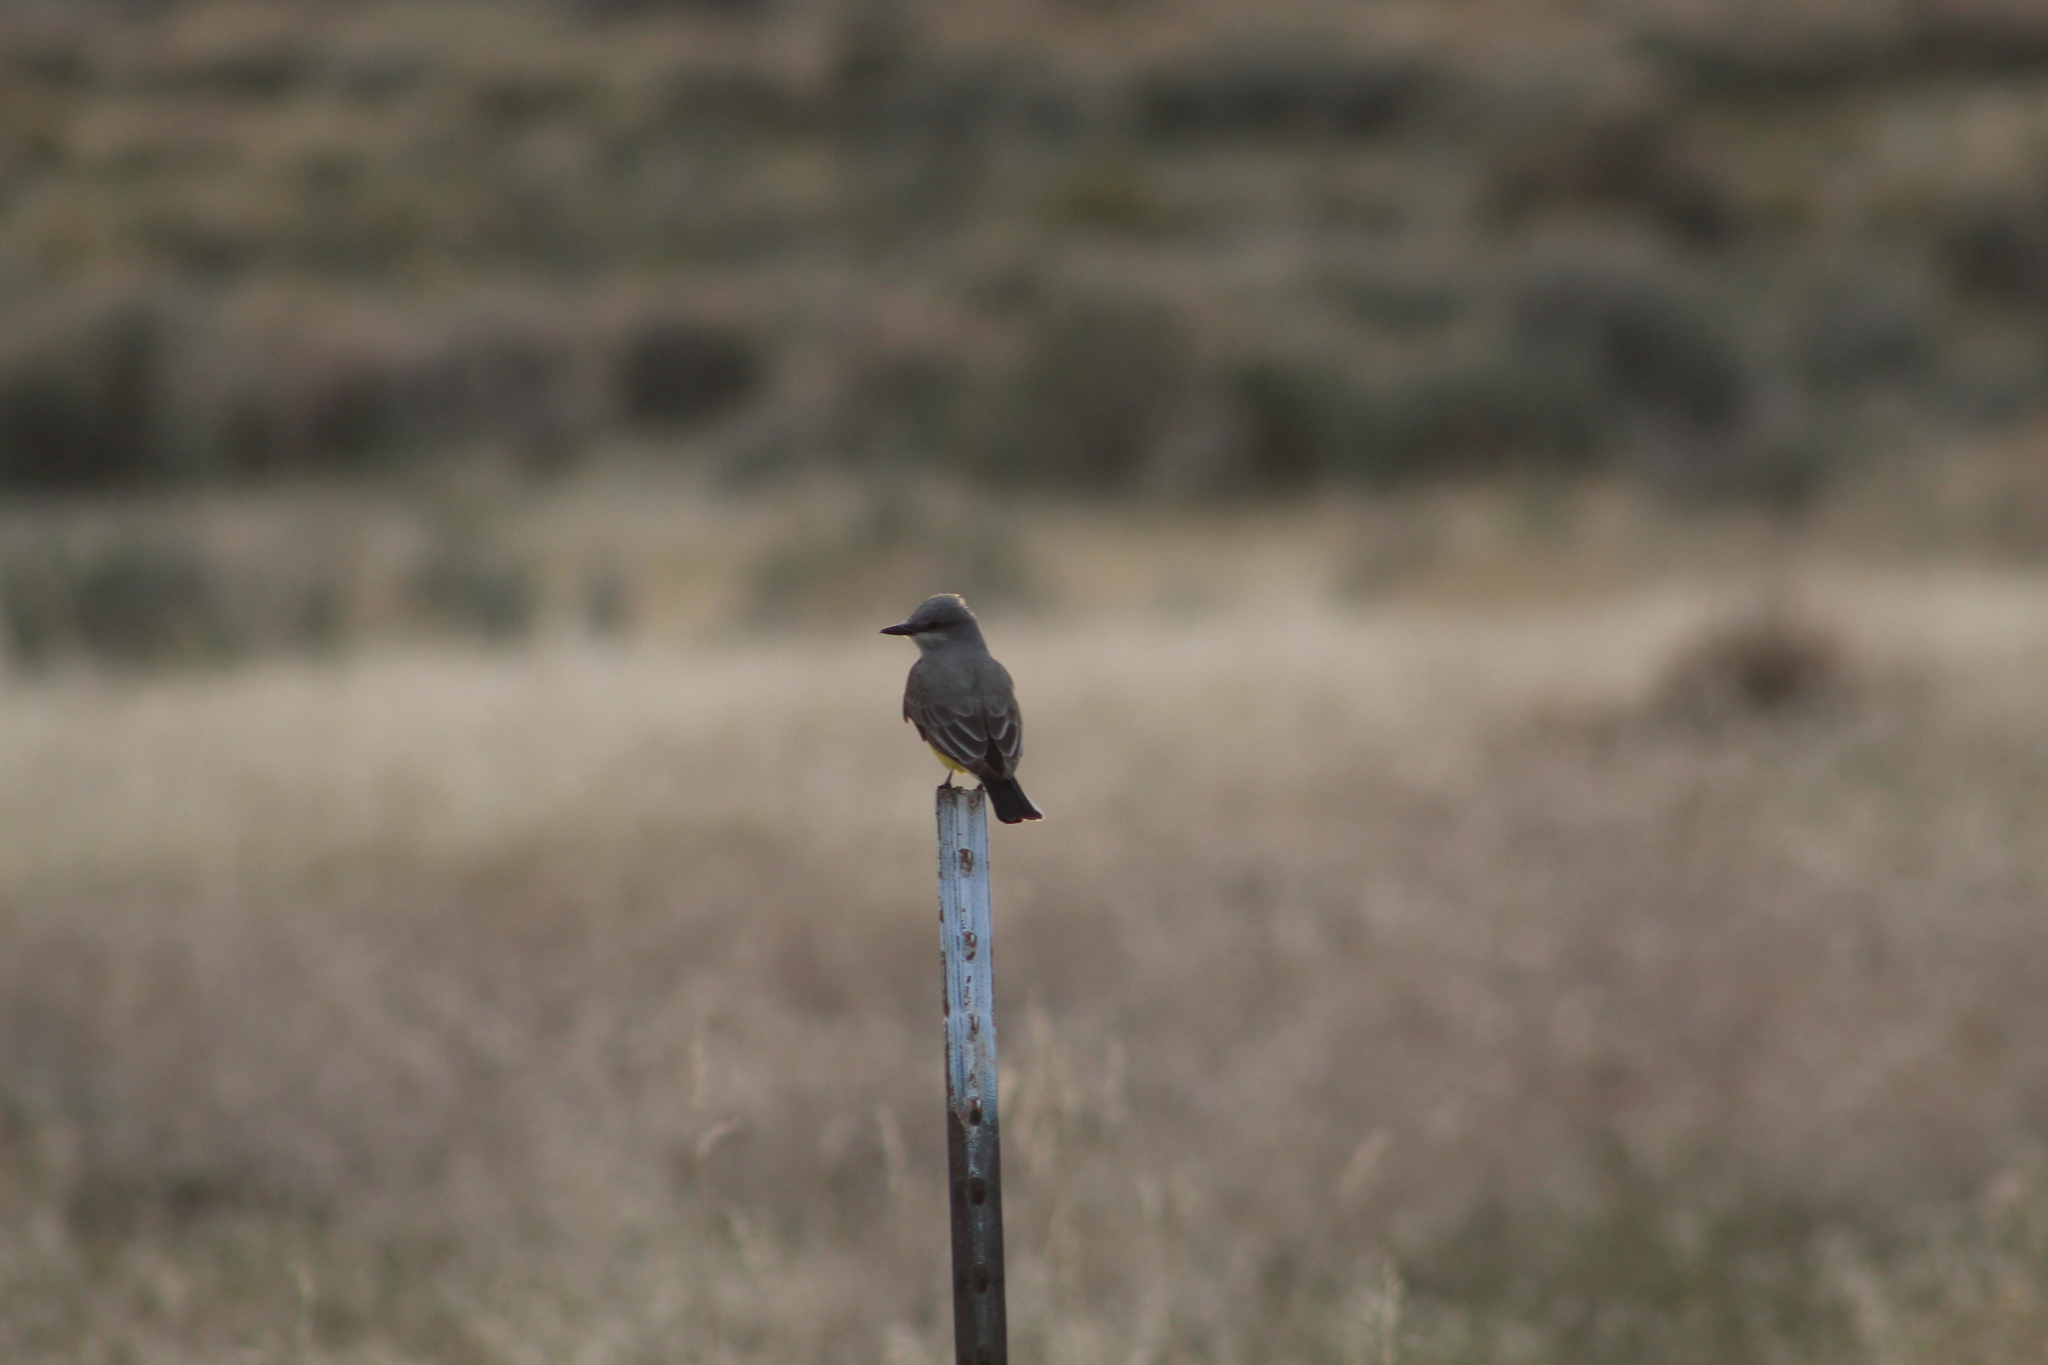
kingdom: Animalia
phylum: Chordata
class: Aves
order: Passeriformes
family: Tyrannidae
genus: Tyrannus
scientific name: Tyrannus verticalis
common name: Western kingbird
